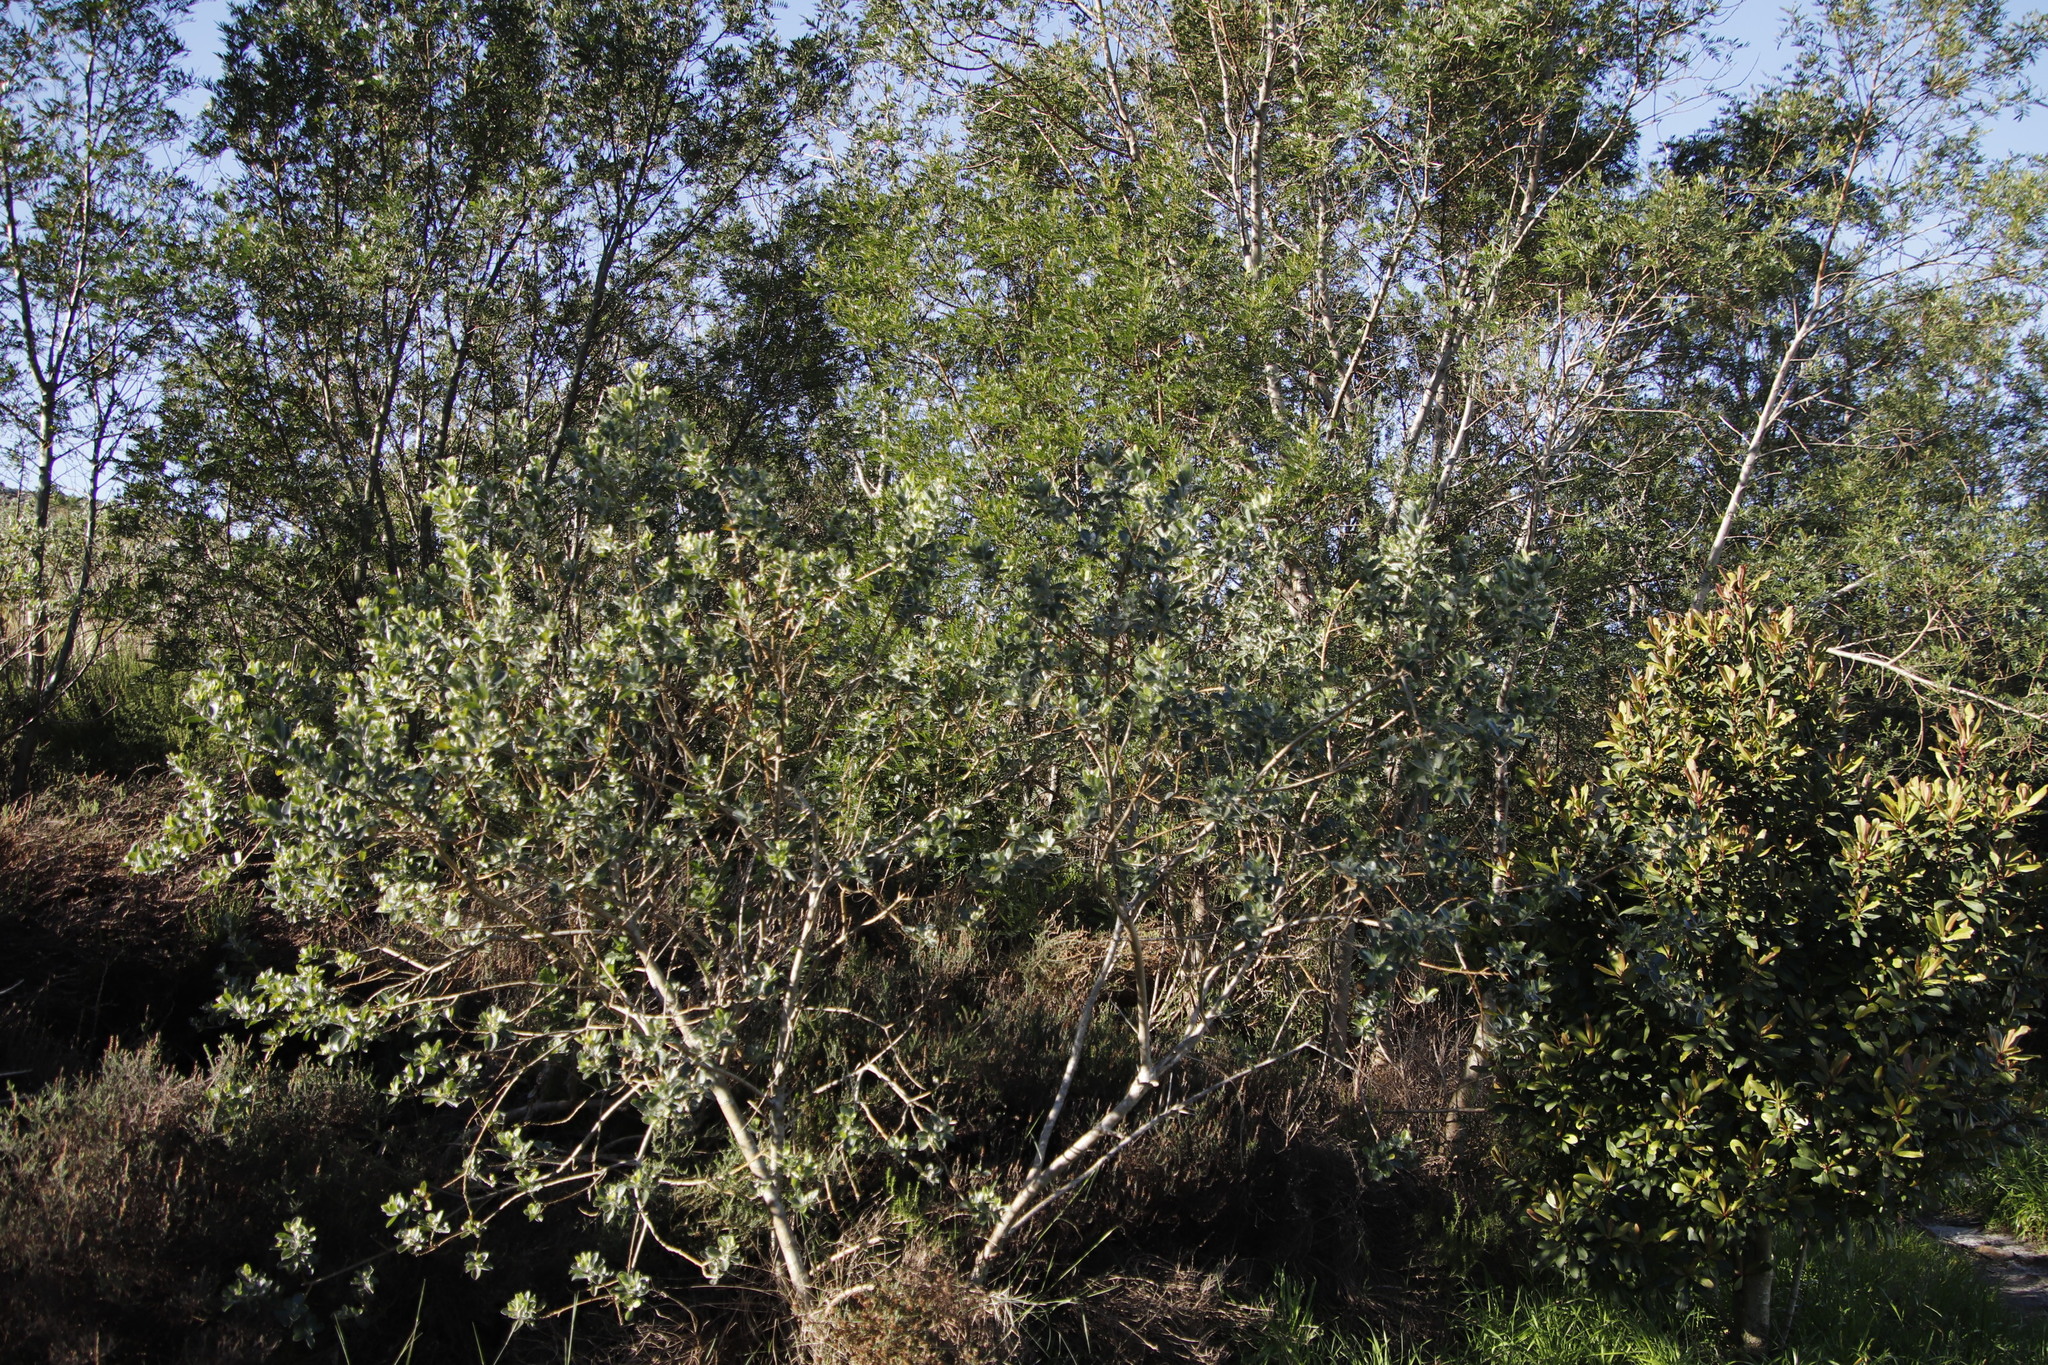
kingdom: Plantae
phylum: Tracheophyta
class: Magnoliopsida
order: Fabales
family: Fabaceae
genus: Podalyria
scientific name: Podalyria calyptrata
